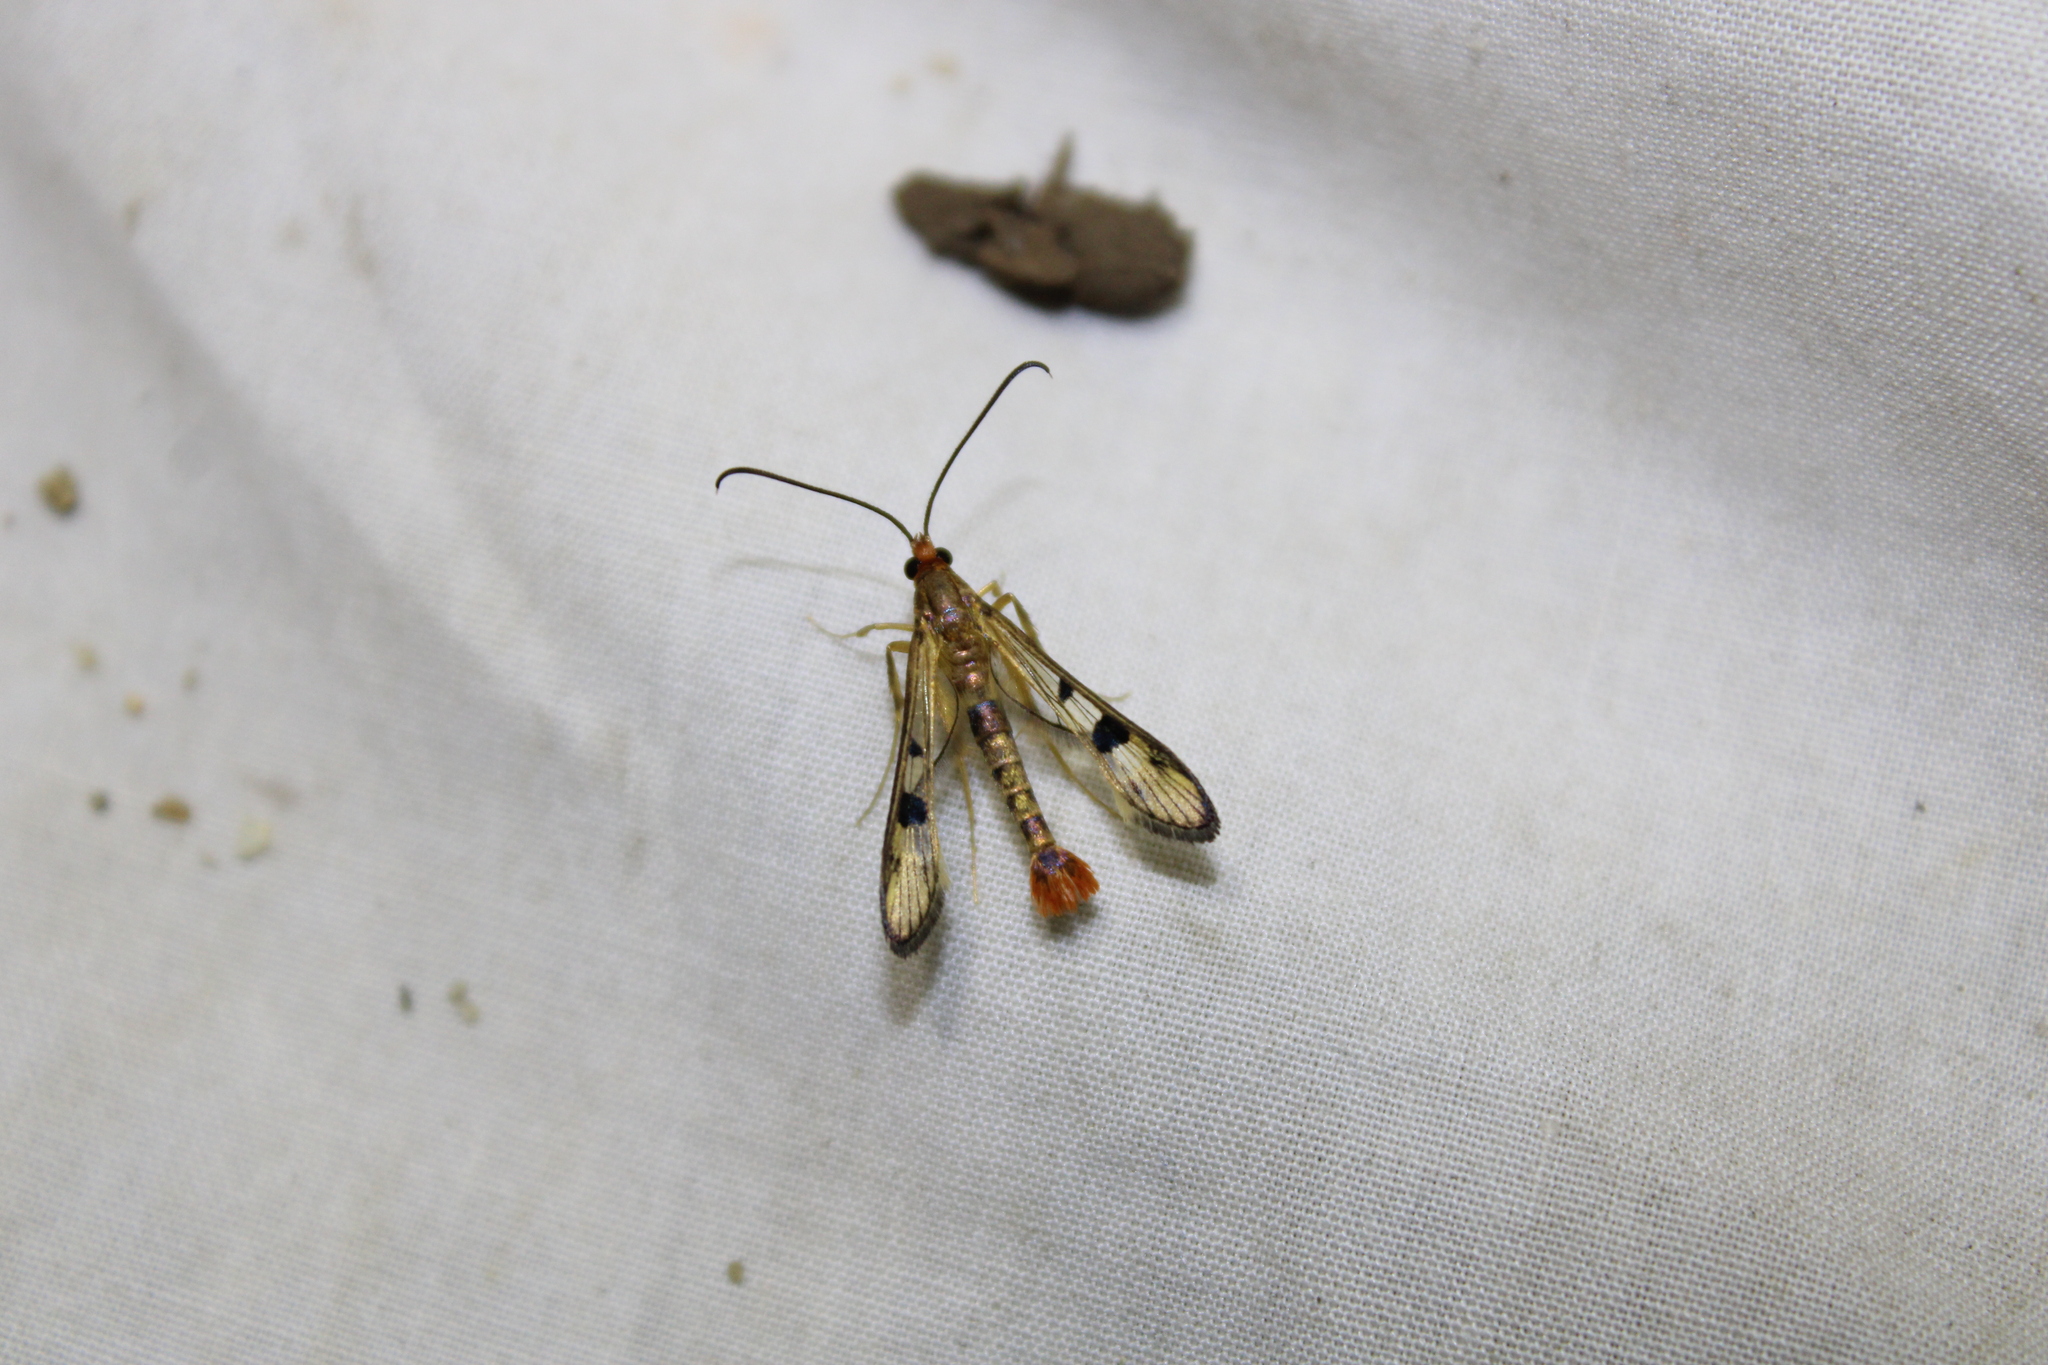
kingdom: Animalia
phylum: Arthropoda
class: Insecta
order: Lepidoptera
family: Sesiidae
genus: Synanthedon
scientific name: Synanthedon acerni
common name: Maple callus borer moth
